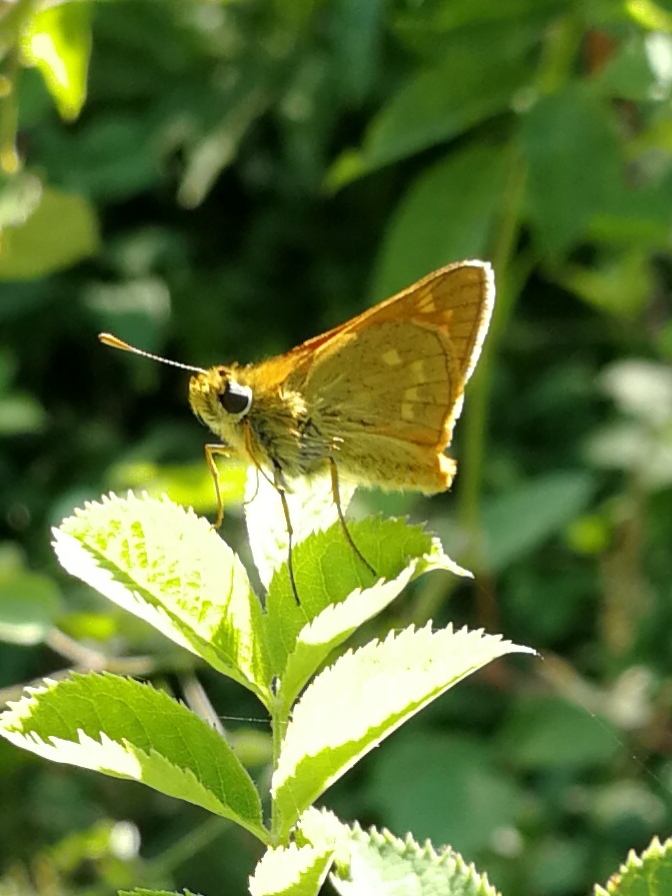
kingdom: Animalia
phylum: Arthropoda
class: Insecta
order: Lepidoptera
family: Hesperiidae
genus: Ochlodes
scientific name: Ochlodes venata
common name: Large skipper
